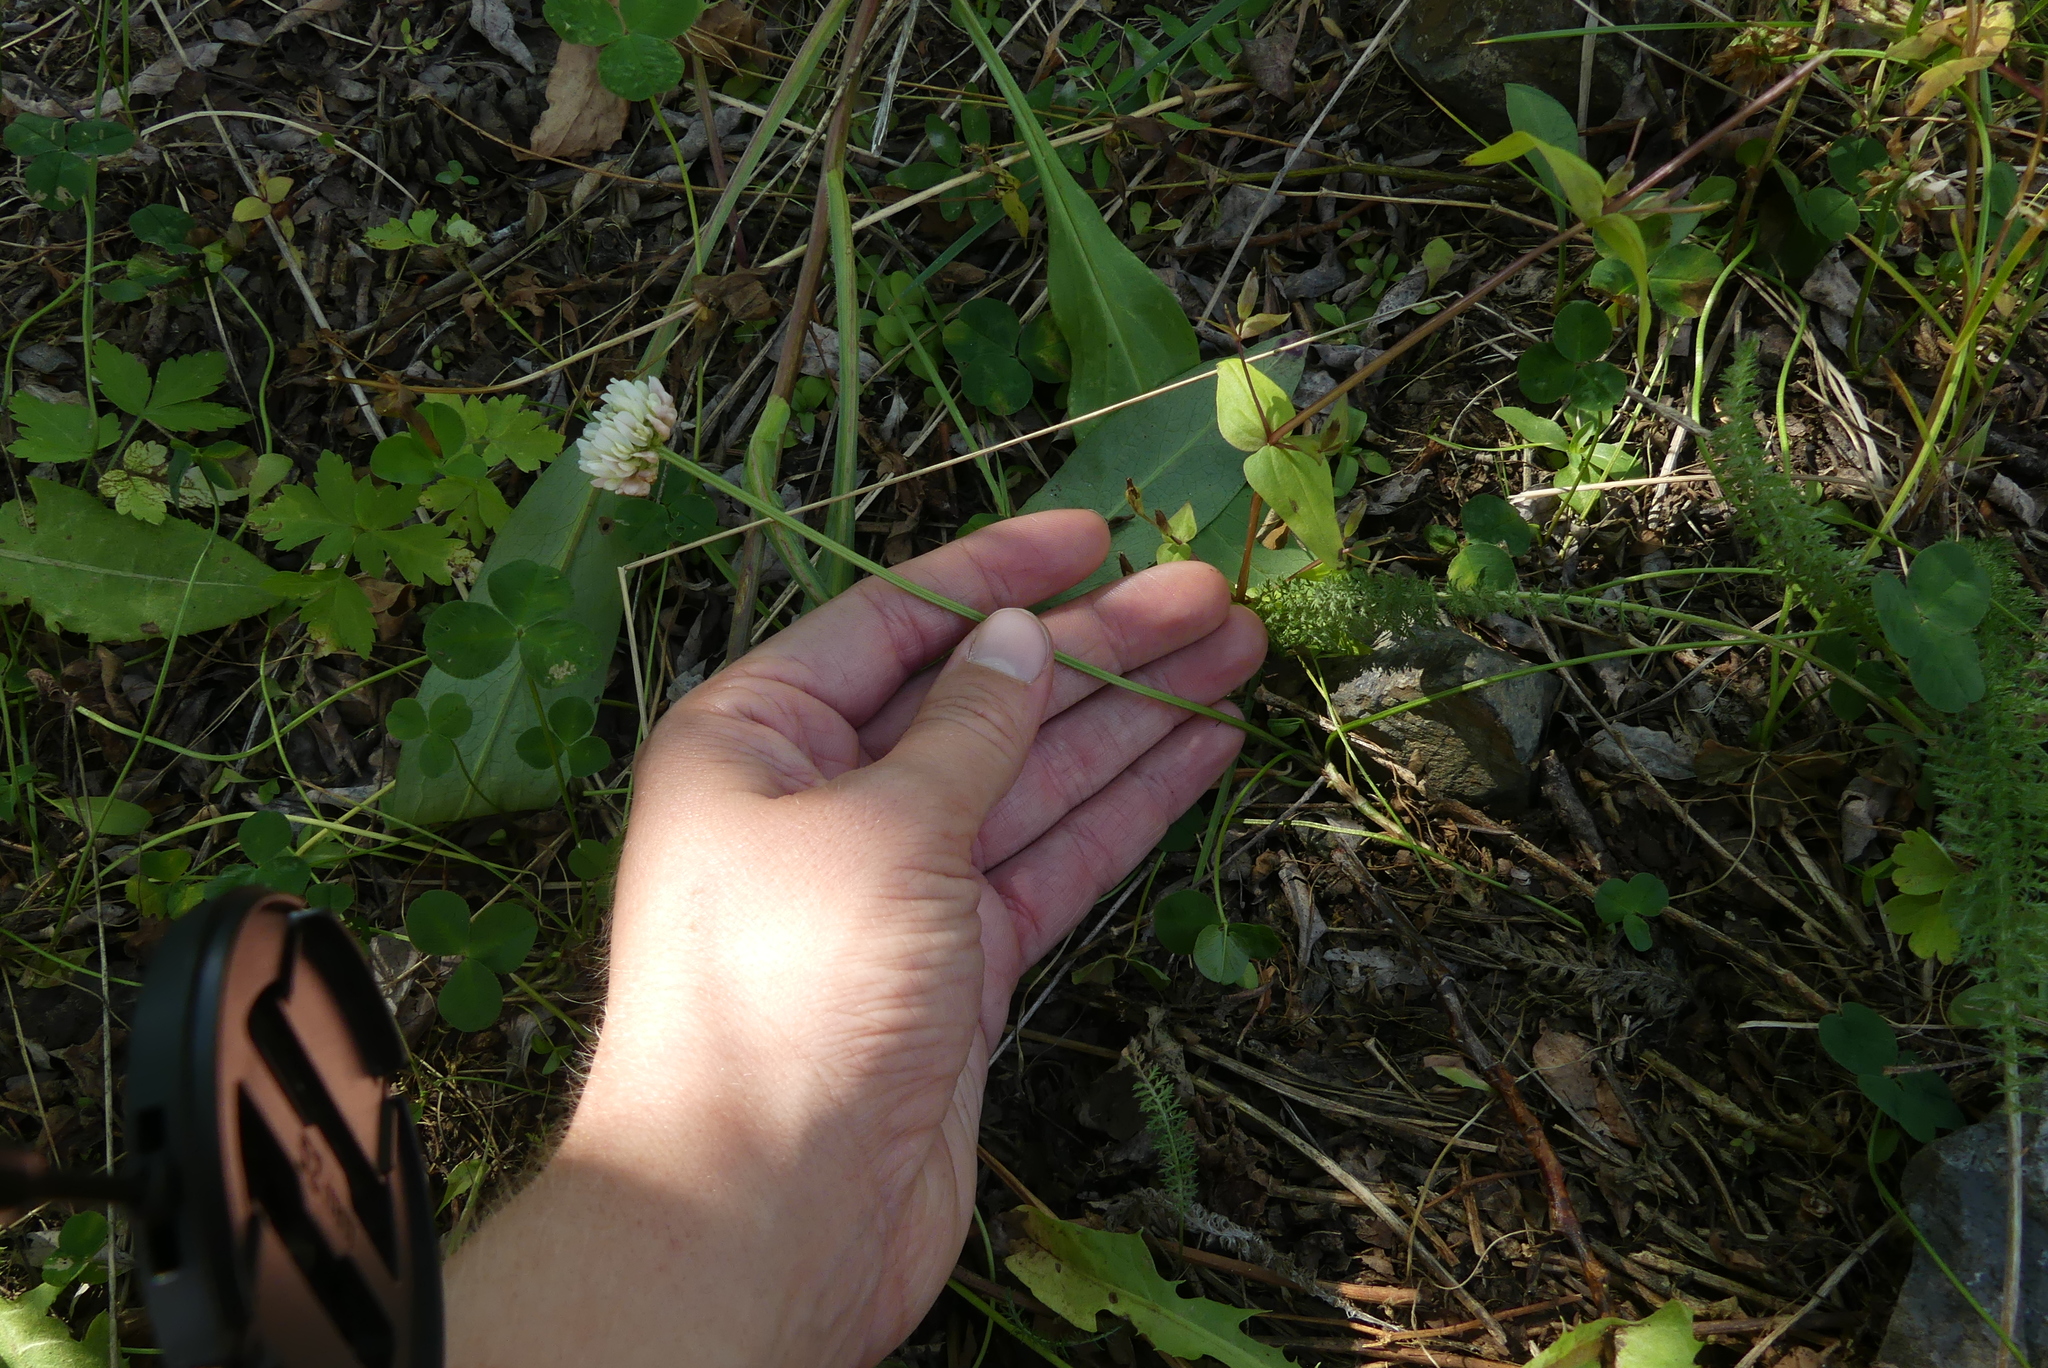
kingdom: Plantae
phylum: Tracheophyta
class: Magnoliopsida
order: Fabales
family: Fabaceae
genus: Trifolium
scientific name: Trifolium repens
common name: White clover
